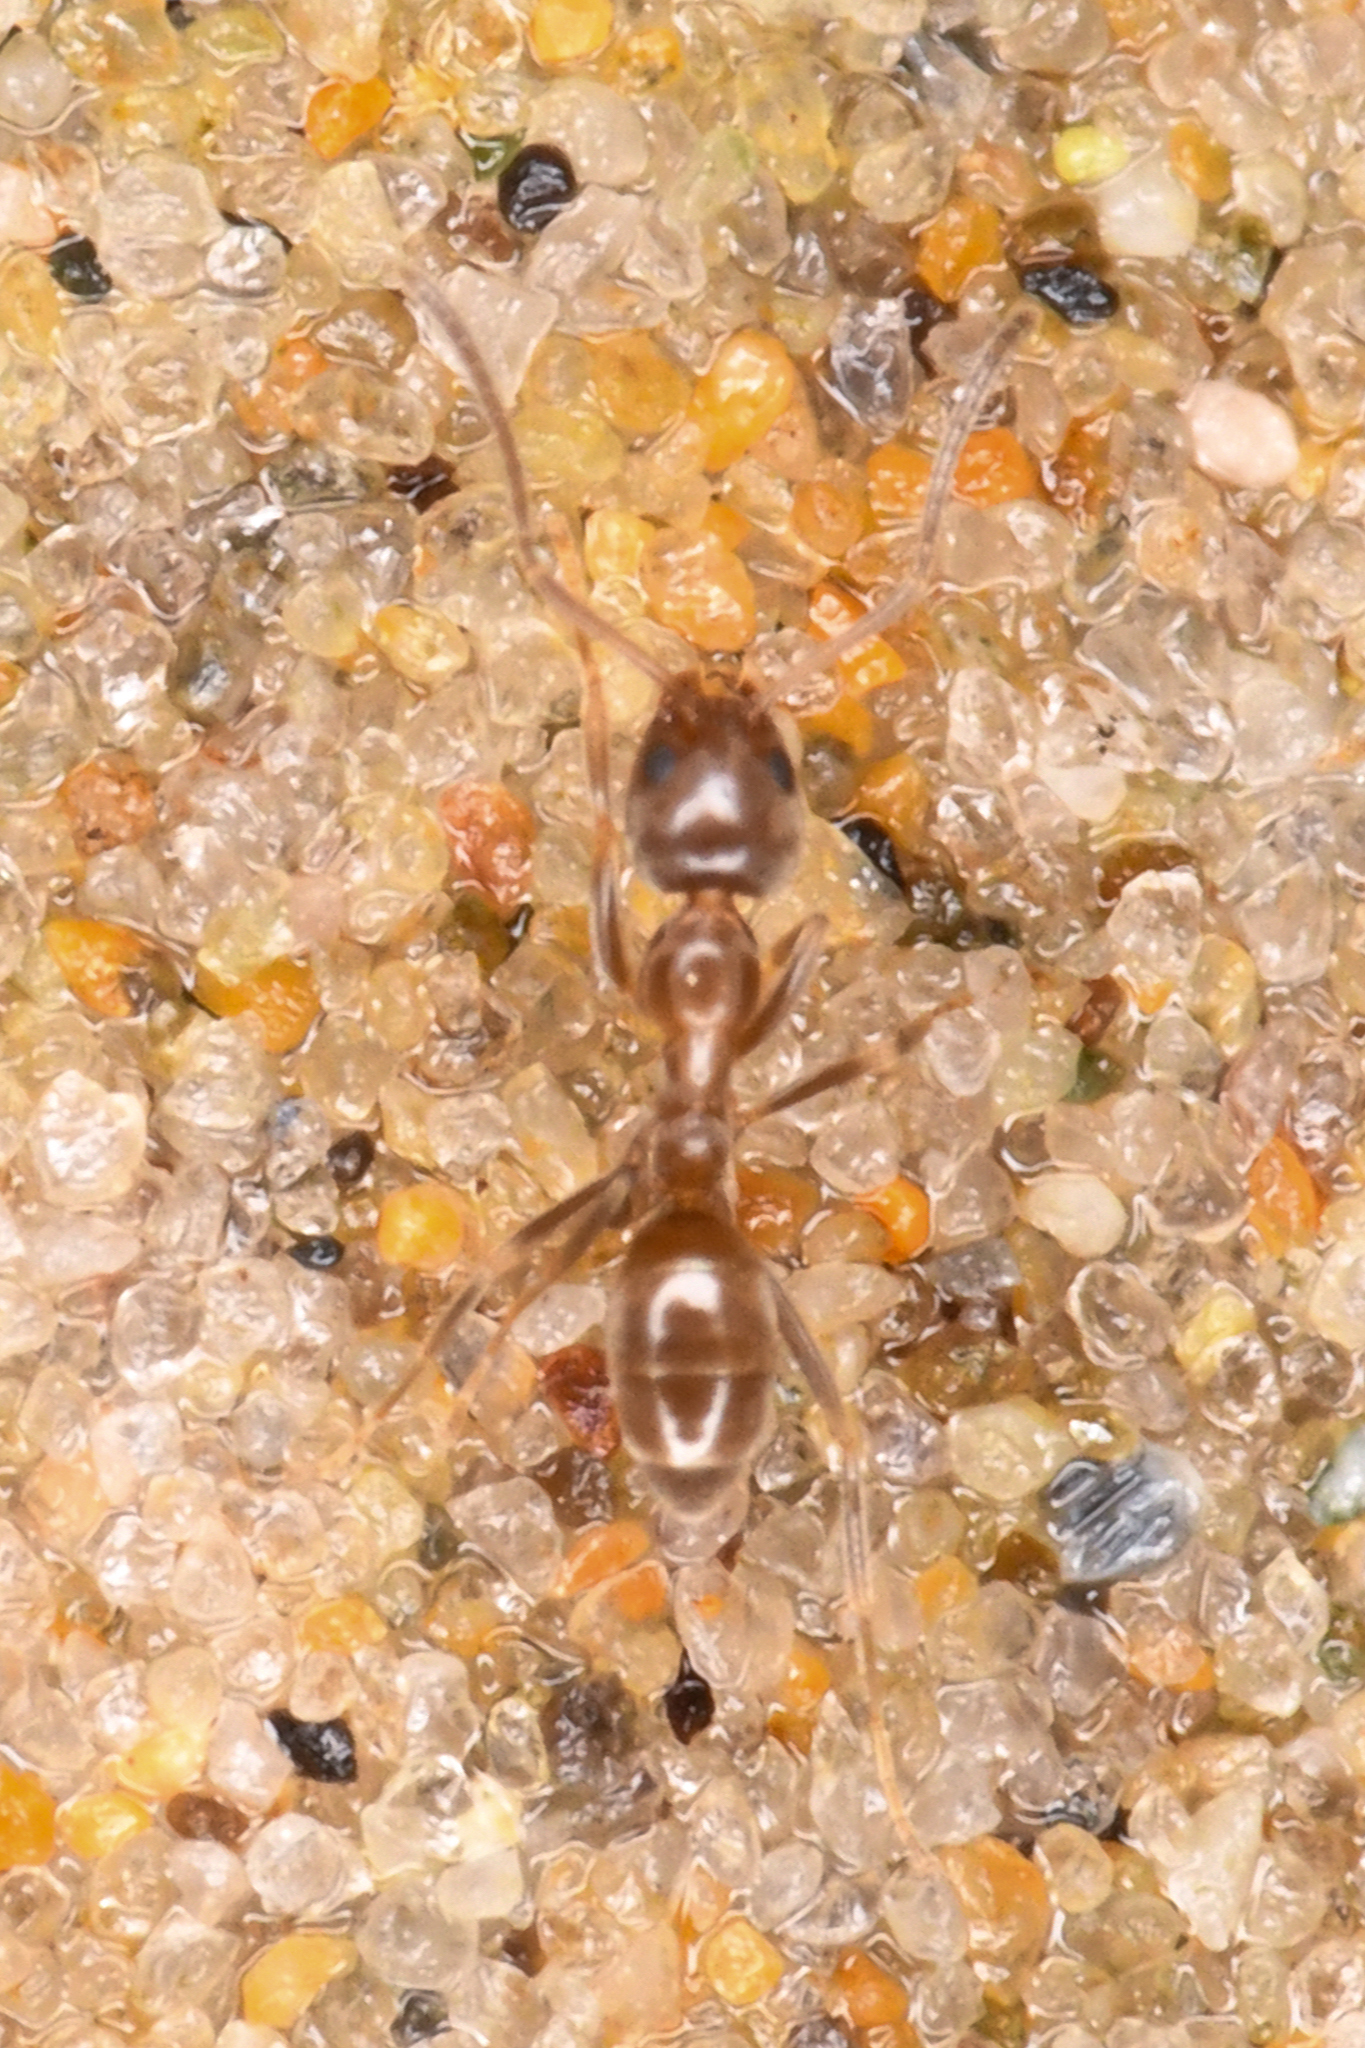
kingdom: Animalia
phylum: Arthropoda
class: Insecta
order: Hymenoptera
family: Formicidae
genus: Linepithema
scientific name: Linepithema humile
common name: Argentine ant
